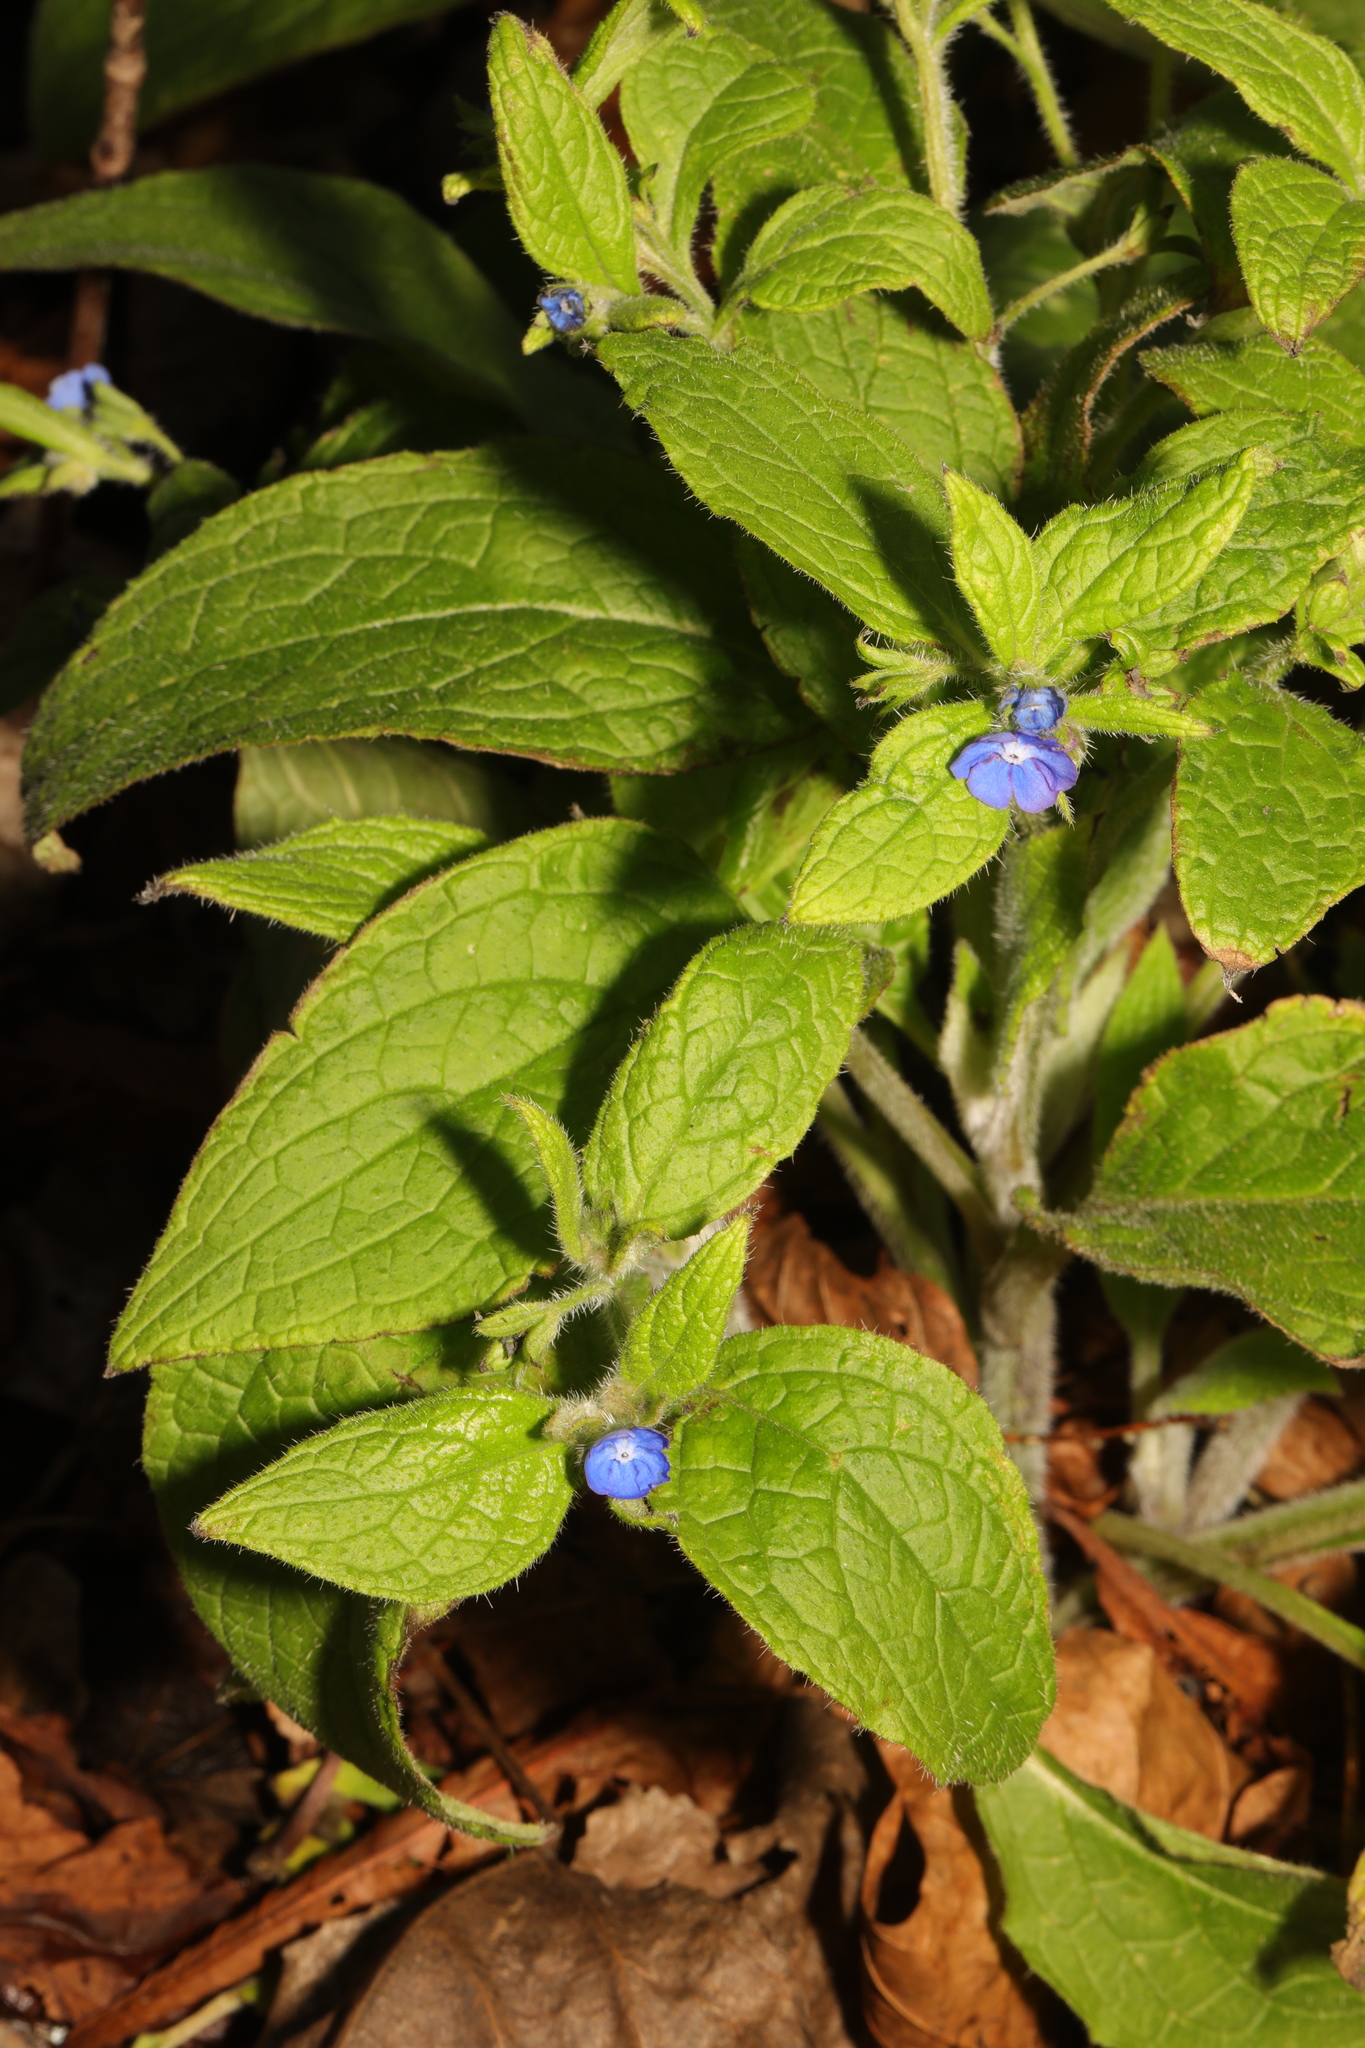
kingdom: Plantae
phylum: Tracheophyta
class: Magnoliopsida
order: Boraginales
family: Boraginaceae
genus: Pentaglottis
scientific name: Pentaglottis sempervirens
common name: Green alkanet
